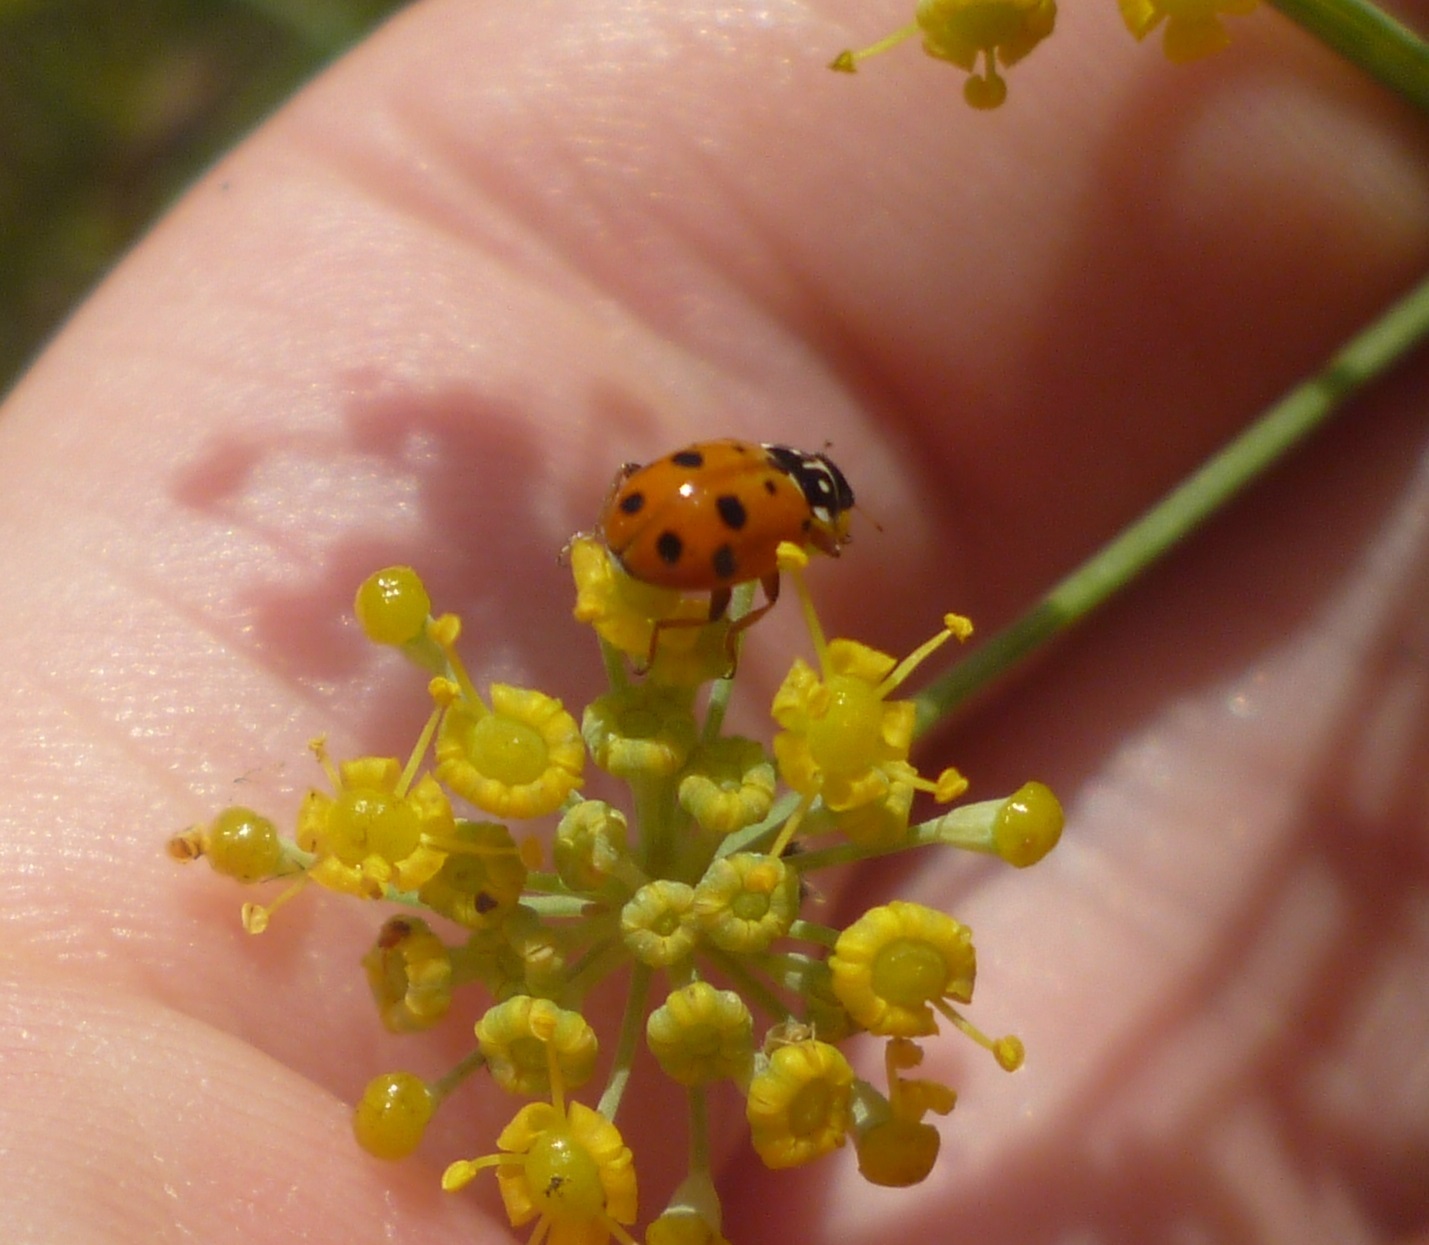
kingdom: Animalia
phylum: Arthropoda
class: Insecta
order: Coleoptera
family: Coccinellidae
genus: Hippodamia
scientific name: Hippodamia variegata
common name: Ladybird beetle
